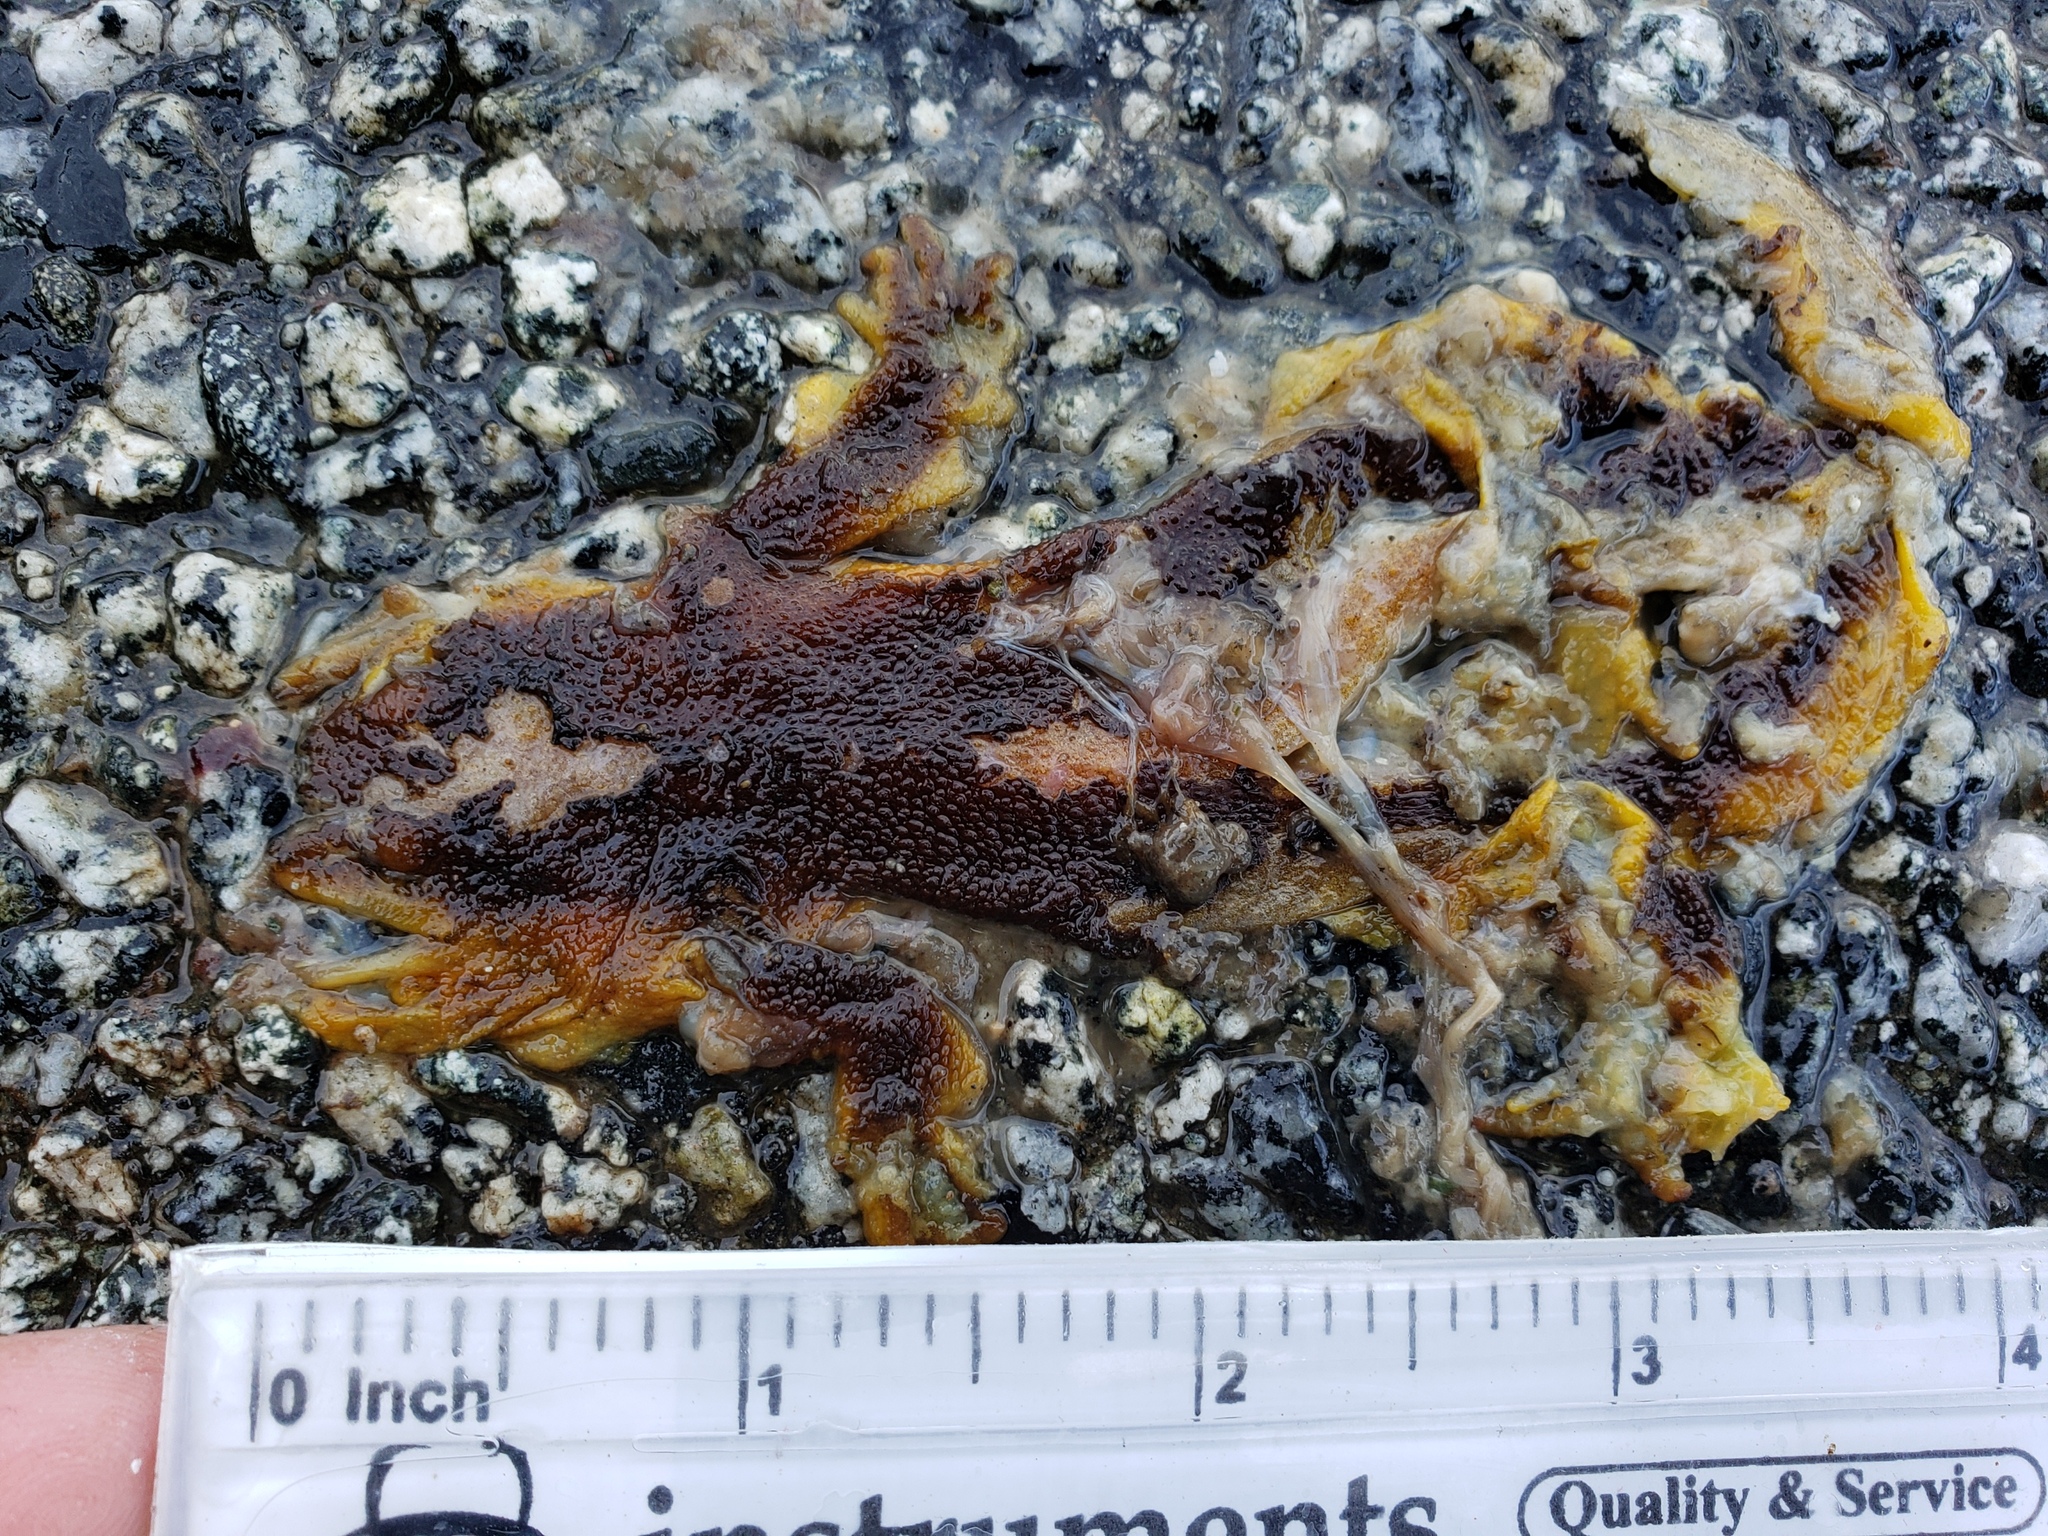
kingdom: Animalia
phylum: Chordata
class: Amphibia
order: Caudata
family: Salamandridae
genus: Taricha
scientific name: Taricha
